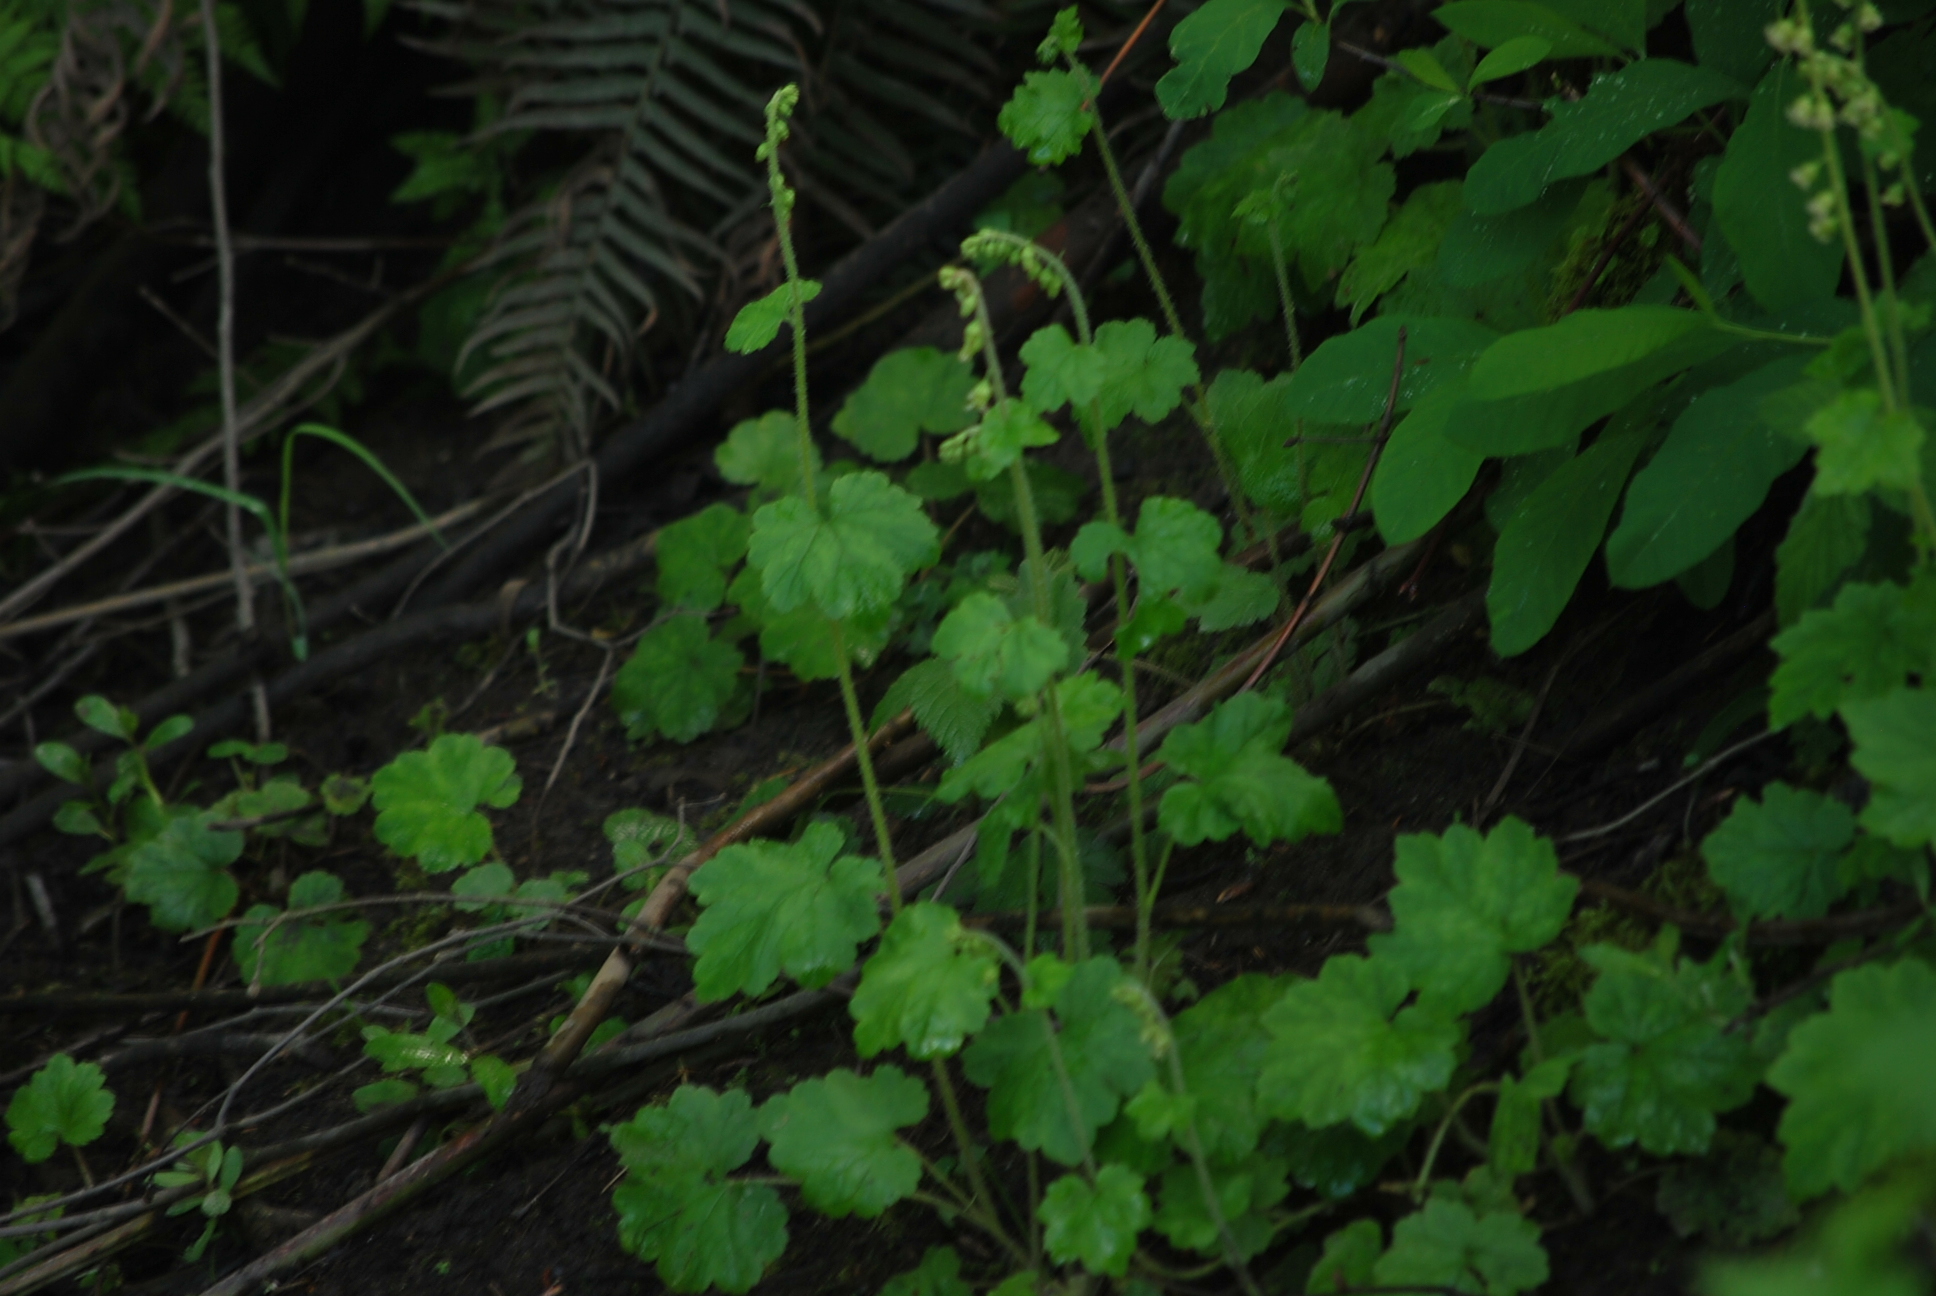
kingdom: Plantae
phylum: Tracheophyta
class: Magnoliopsida
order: Saxifragales
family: Saxifragaceae
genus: Tellima
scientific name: Tellima grandiflora
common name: Fringecups
